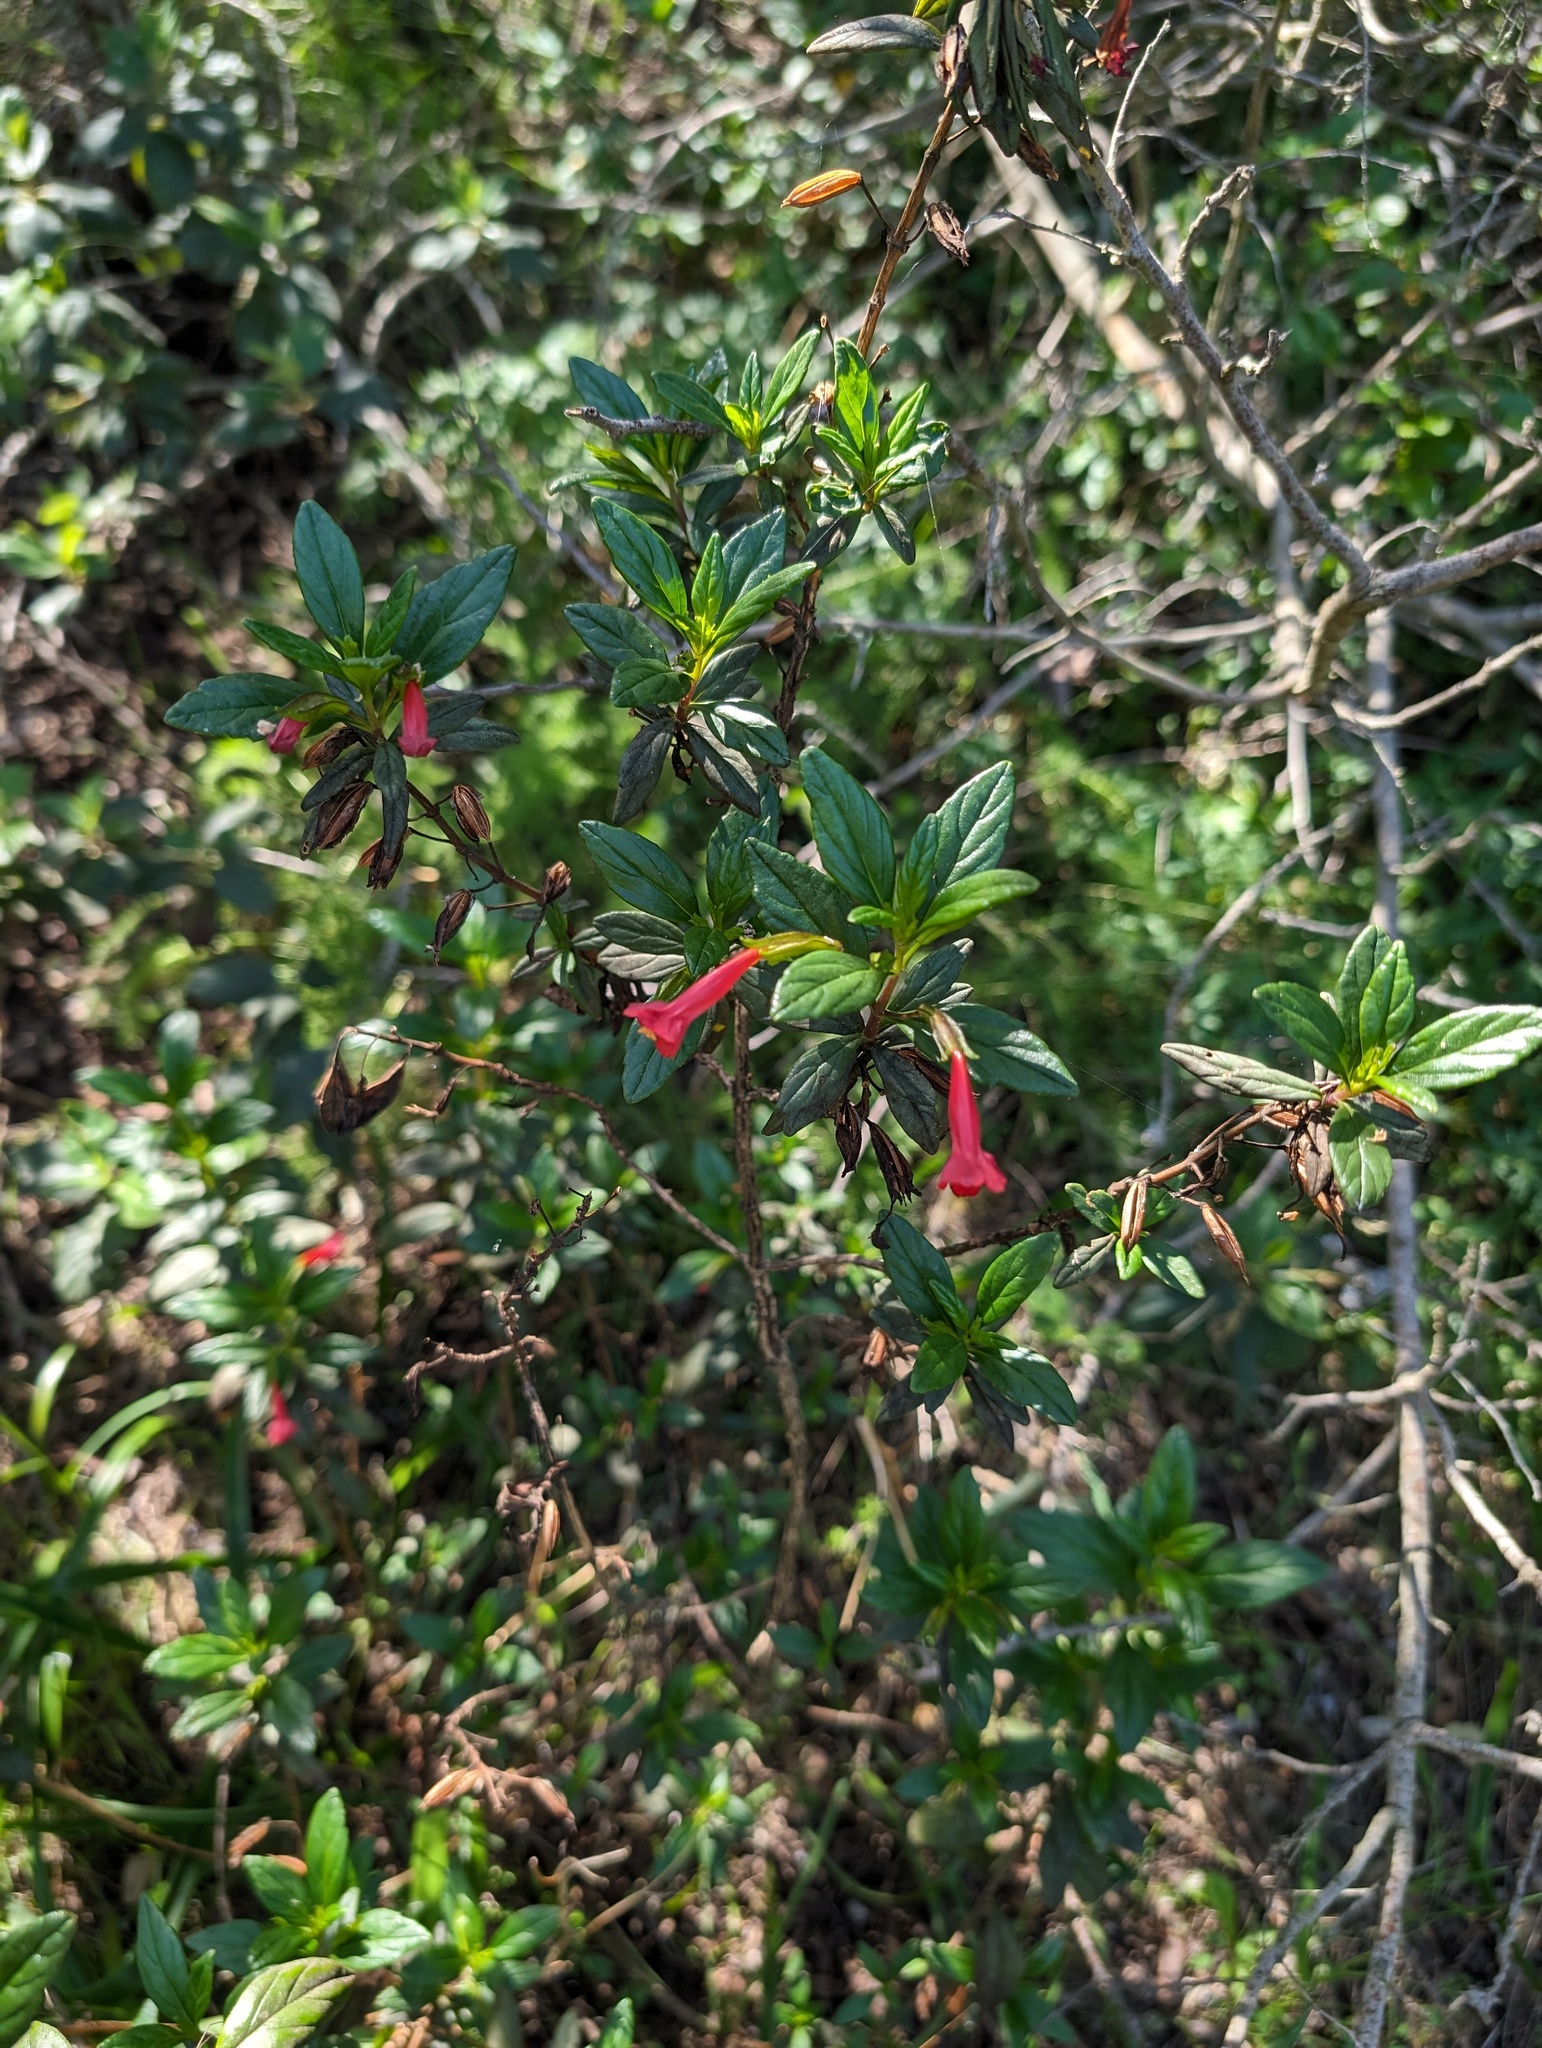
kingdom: Plantae
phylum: Tracheophyta
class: Magnoliopsida
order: Lamiales
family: Phrymaceae
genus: Diplacus
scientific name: Diplacus parviflorus
